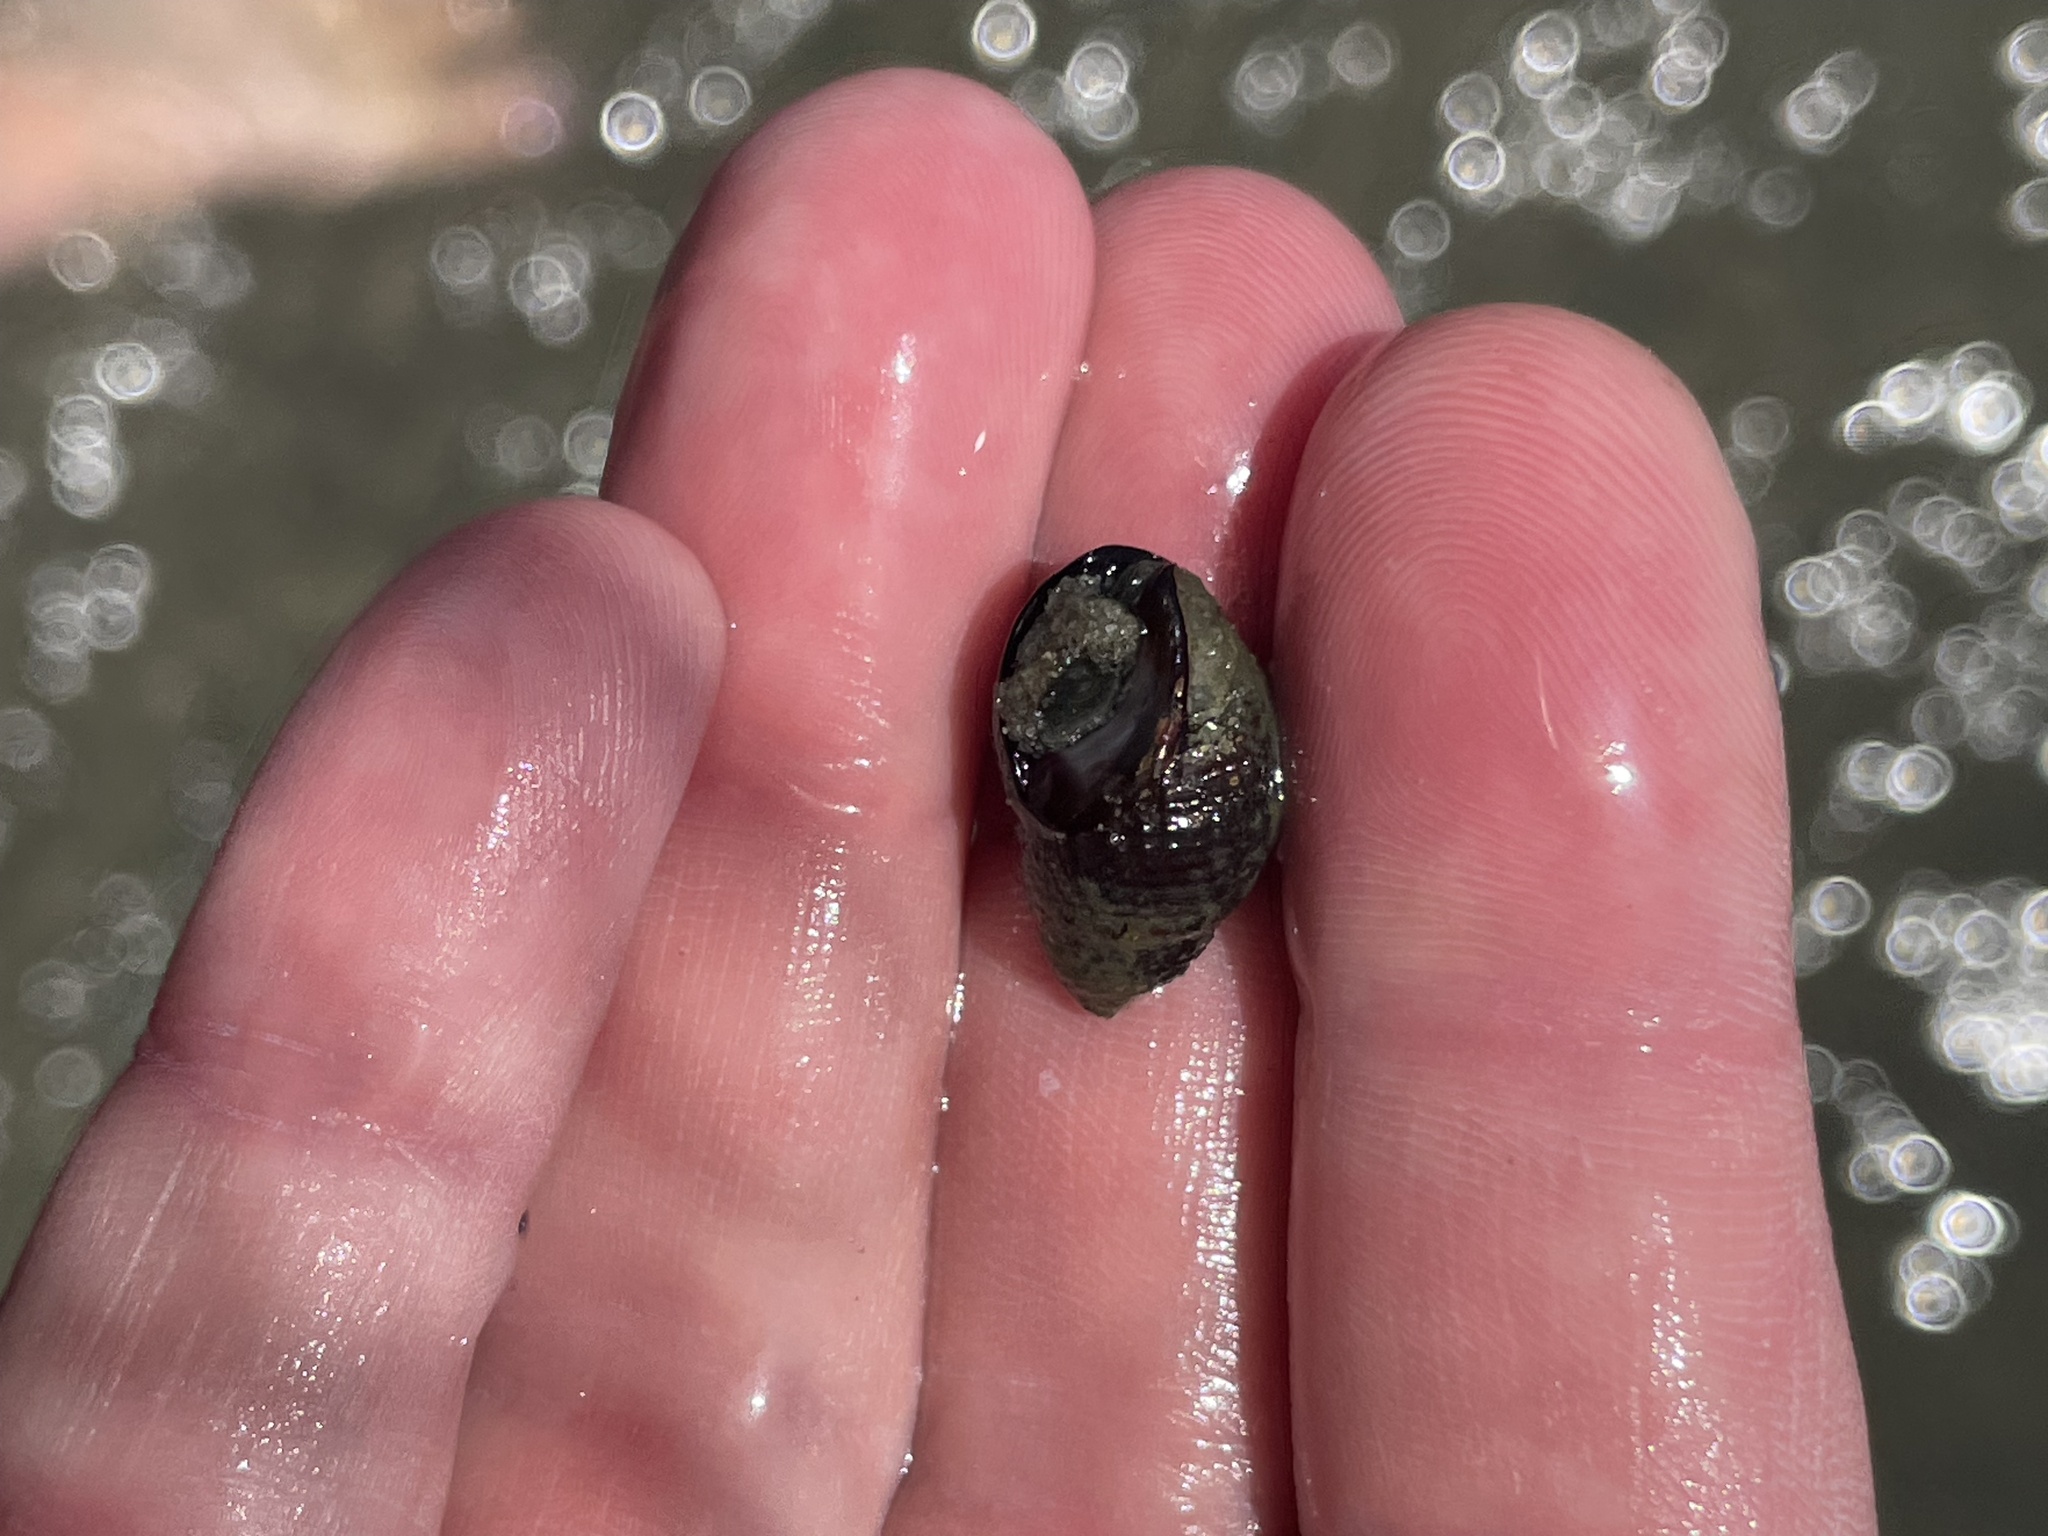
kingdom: Animalia
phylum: Mollusca
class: Gastropoda
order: Neogastropoda
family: Nassariidae
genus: Ilyanassa
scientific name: Ilyanassa obsoleta
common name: Eastern mudsnail
